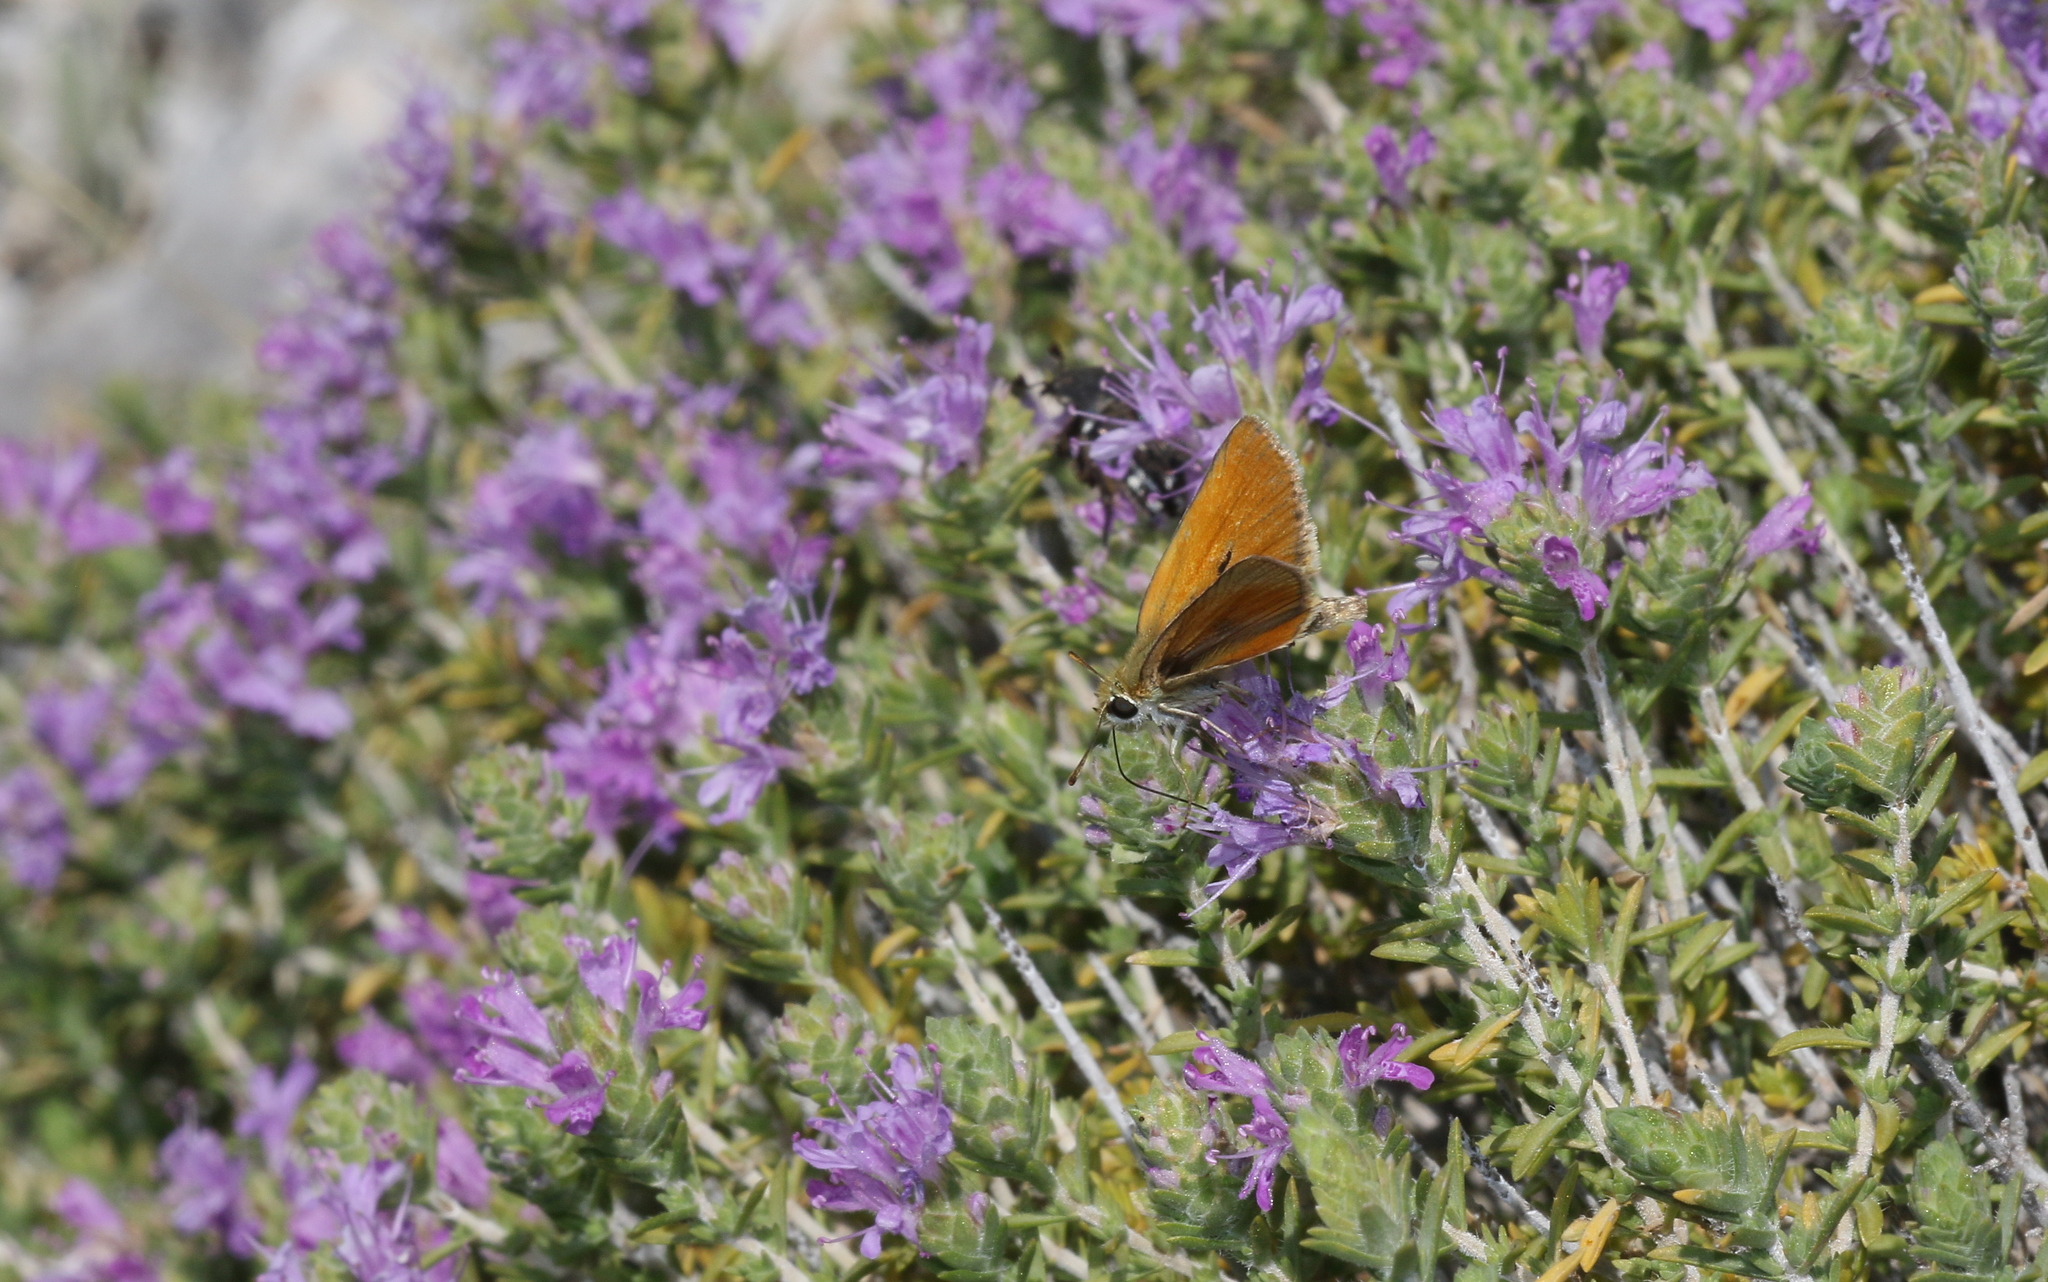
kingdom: Animalia
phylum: Arthropoda
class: Insecta
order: Lepidoptera
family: Hesperiidae
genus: Thymelicus
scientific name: Thymelicus hyrax
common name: Levantine skipper
